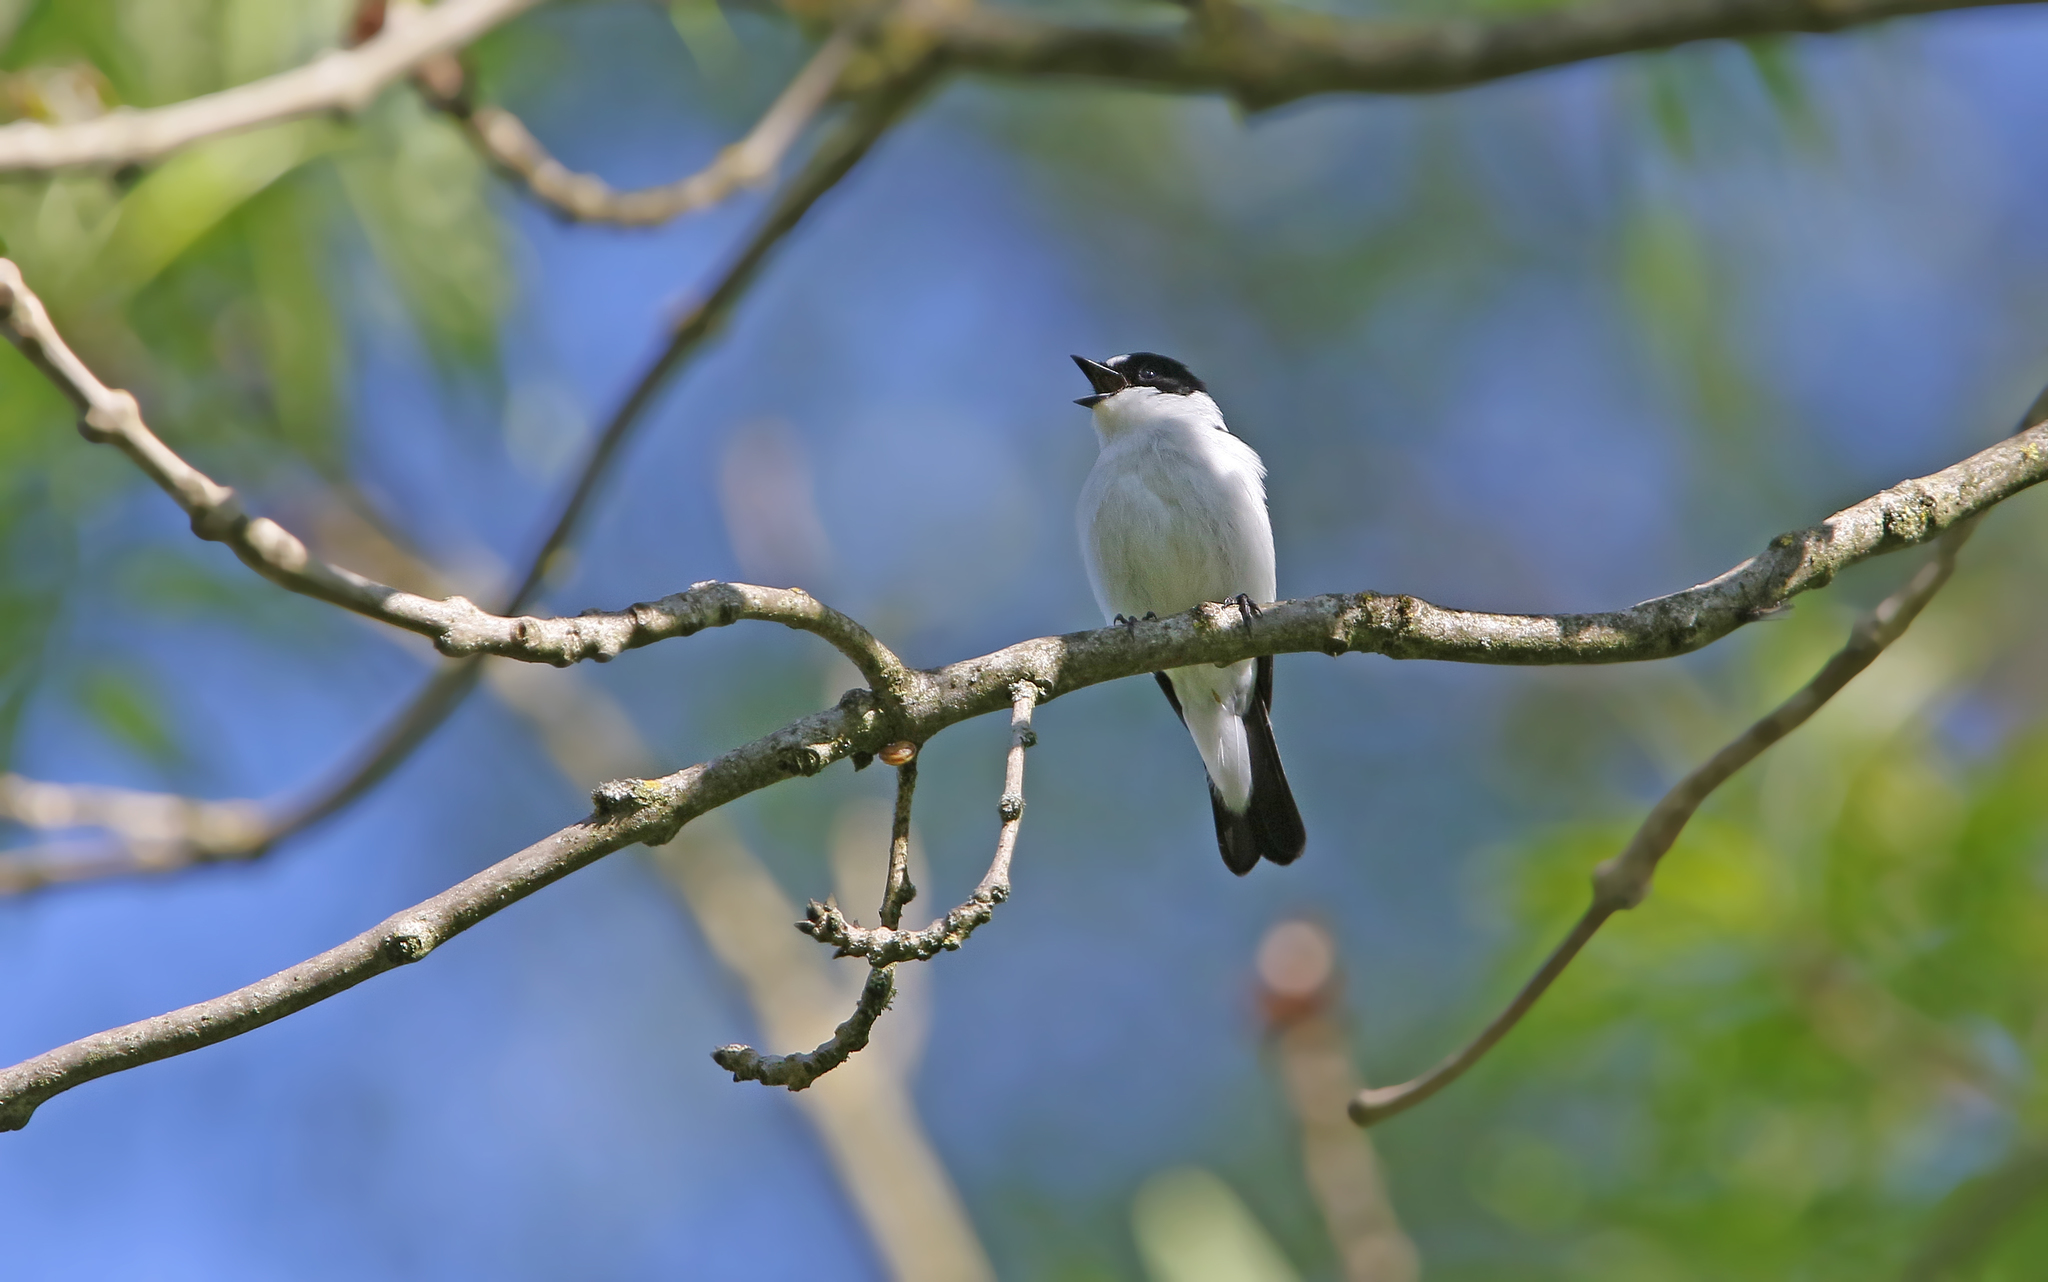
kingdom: Animalia
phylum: Chordata
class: Aves
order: Passeriformes
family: Muscicapidae
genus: Ficedula
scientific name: Ficedula albicollis
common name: Collared flycatcher
